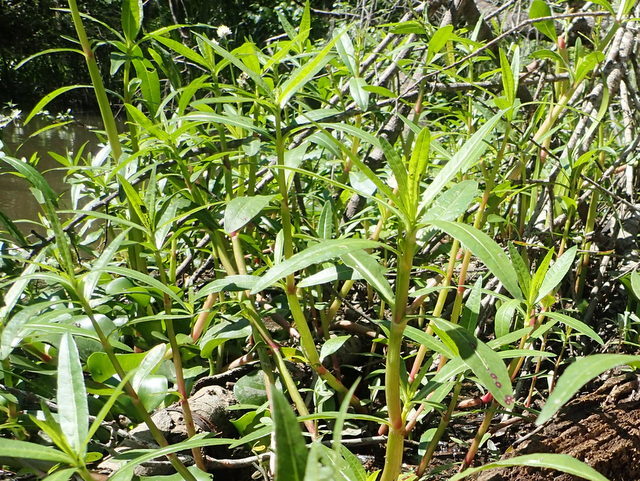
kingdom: Plantae
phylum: Tracheophyta
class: Magnoliopsida
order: Caryophyllales
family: Amaranthaceae
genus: Alternanthera
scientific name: Alternanthera philoxeroides
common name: Alligatorweed
